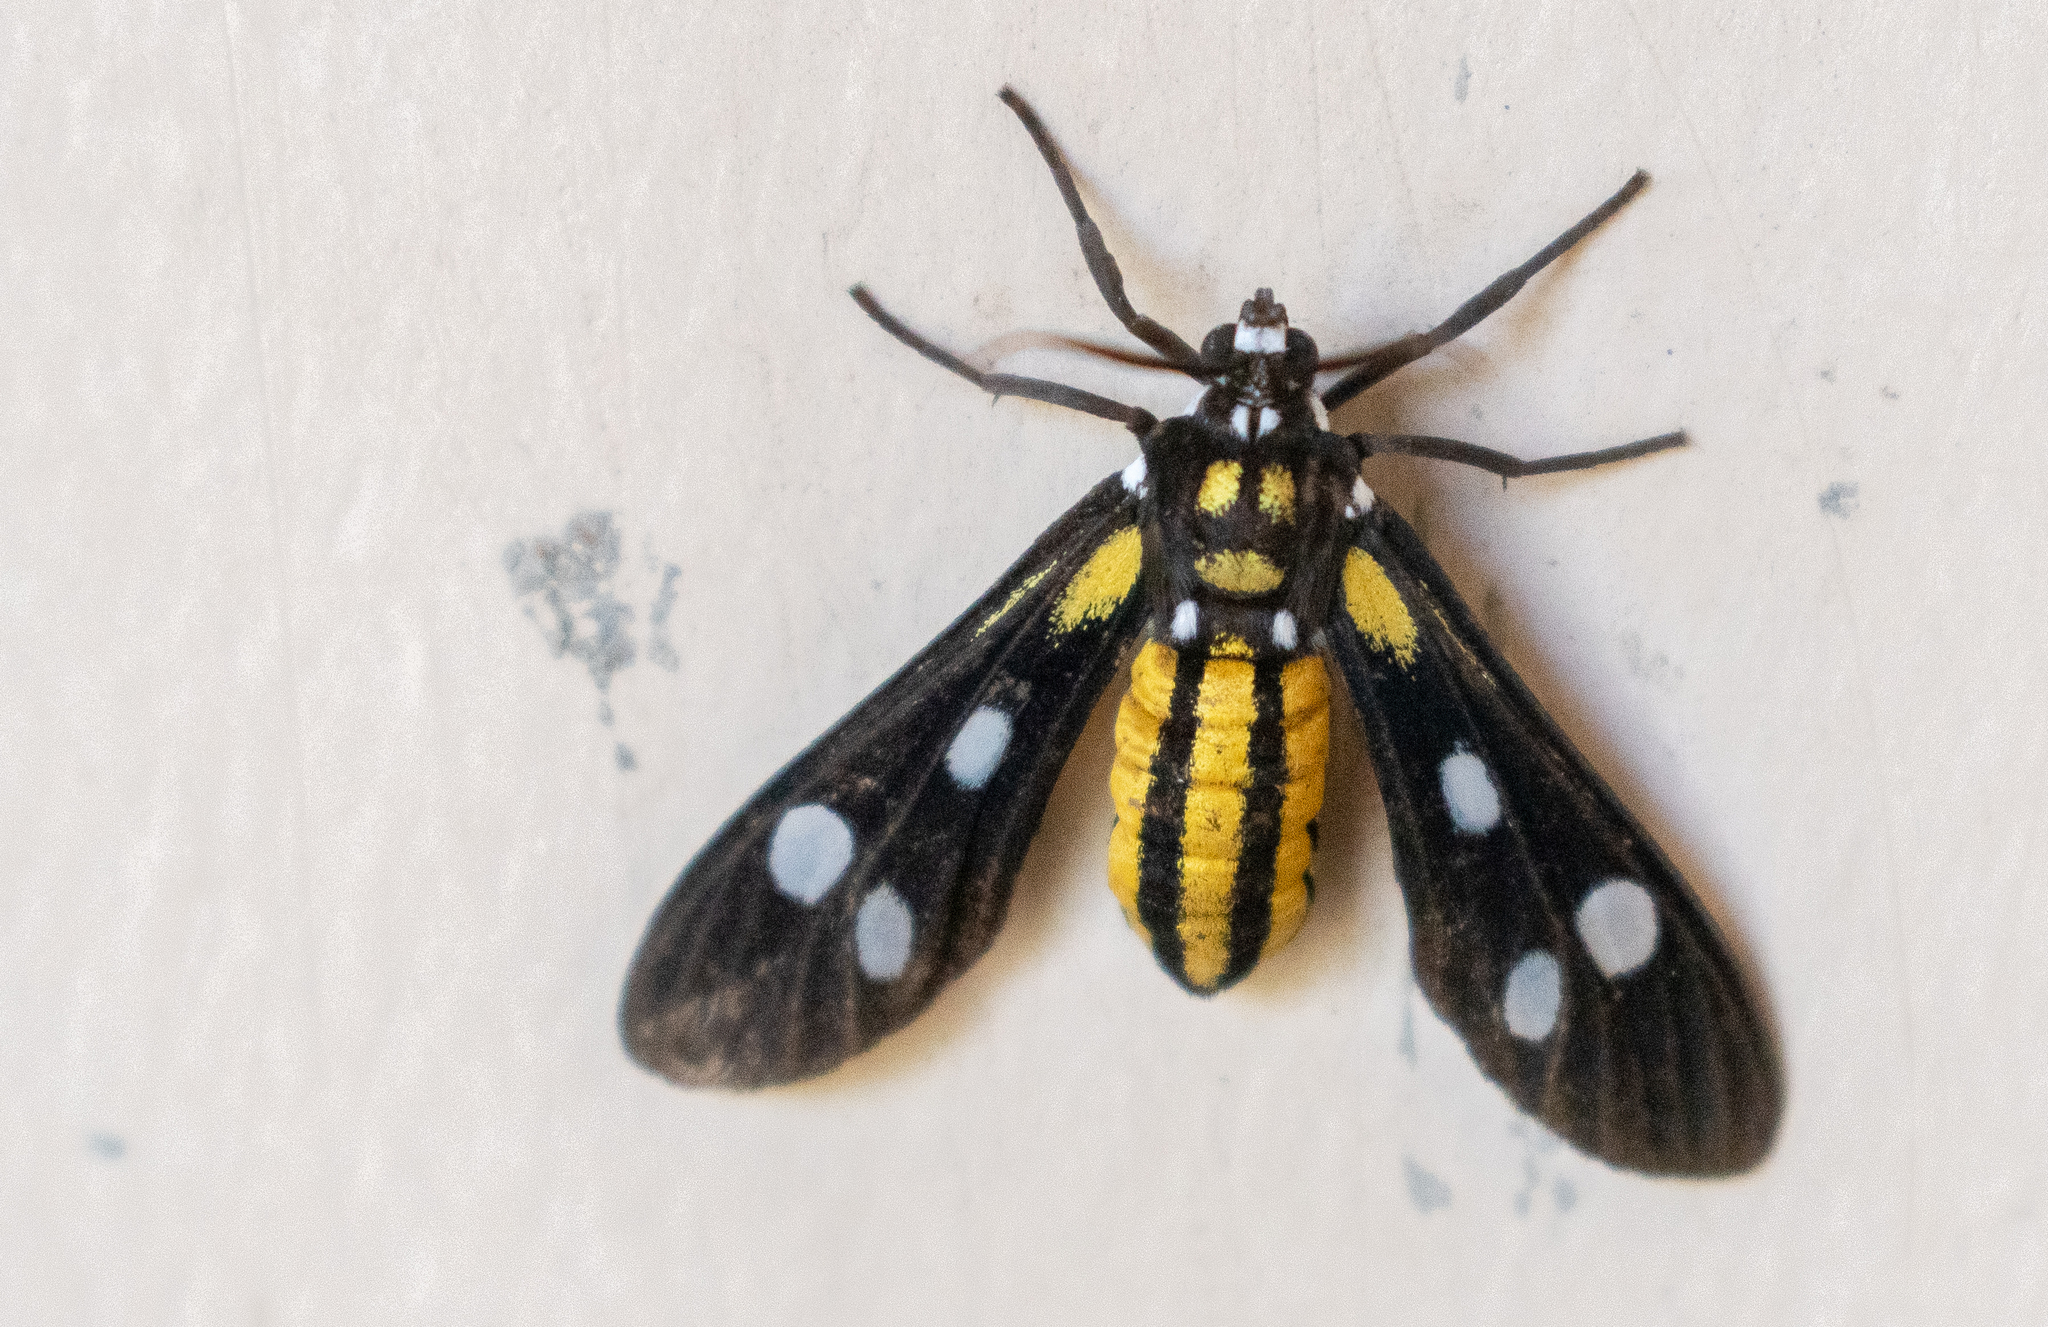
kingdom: Animalia
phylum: Arthropoda
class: Insecta
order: Lepidoptera
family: Erebidae
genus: Calonotos
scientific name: Calonotos tiburtus
